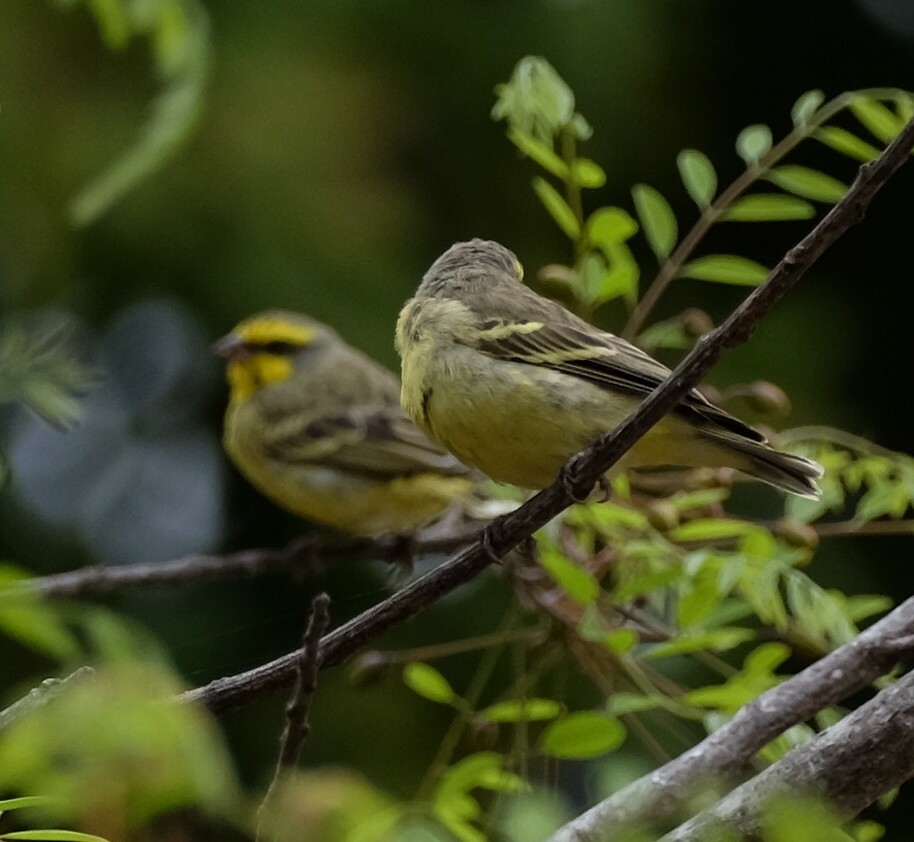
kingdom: Animalia
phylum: Chordata
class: Aves
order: Passeriformes
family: Fringillidae
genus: Crithagra
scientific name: Crithagra mozambica
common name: Yellow-fronted canary
